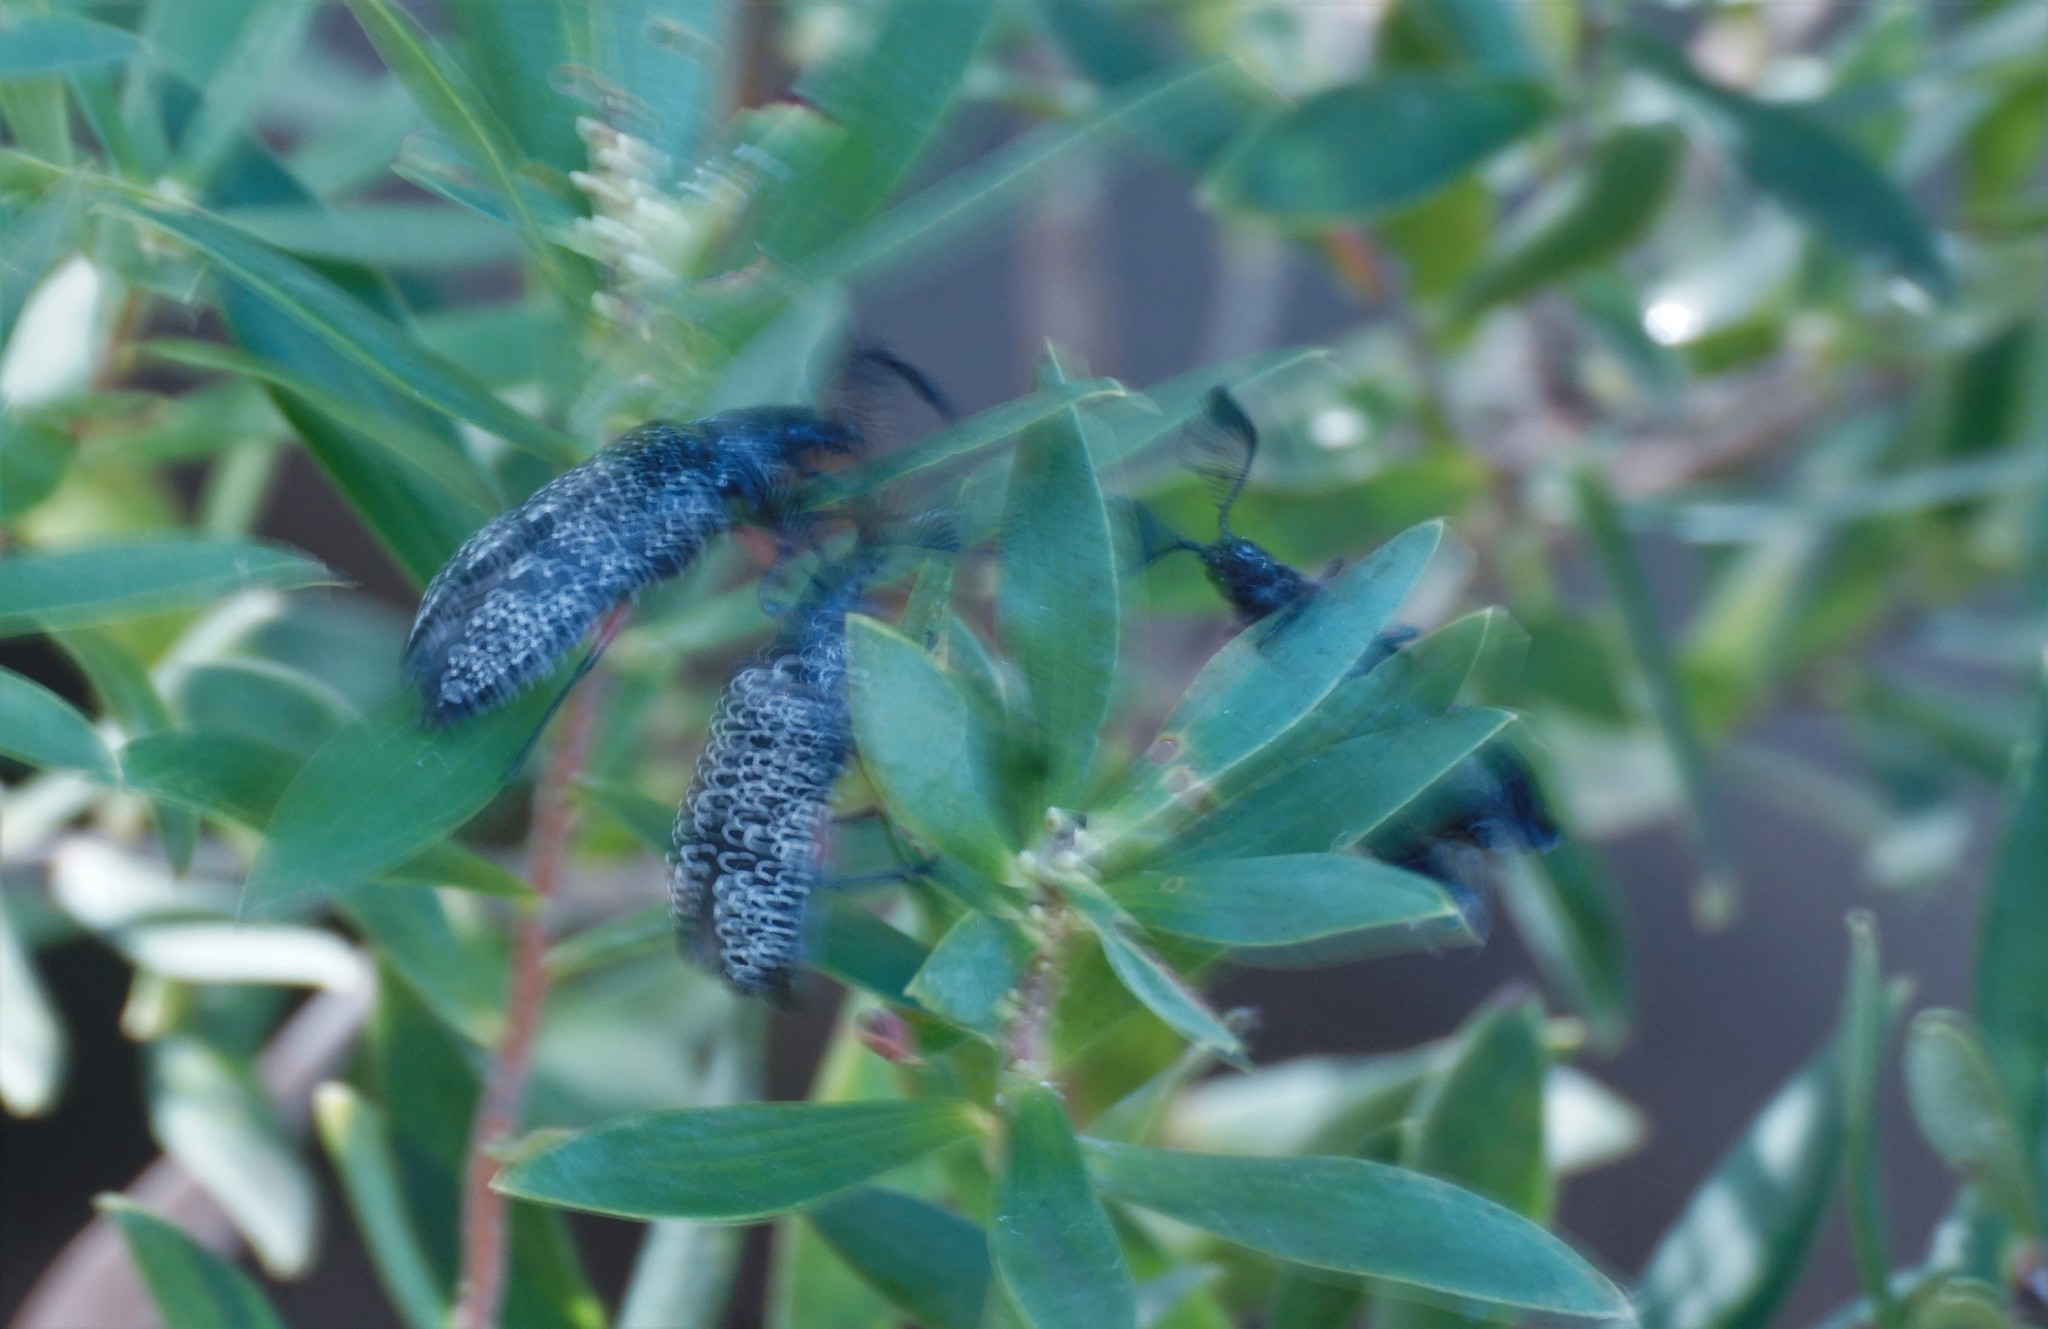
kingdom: Animalia
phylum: Arthropoda
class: Insecta
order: Coleoptera
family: Rhipiceridae
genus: Rhipicera
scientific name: Rhipicera femorata
